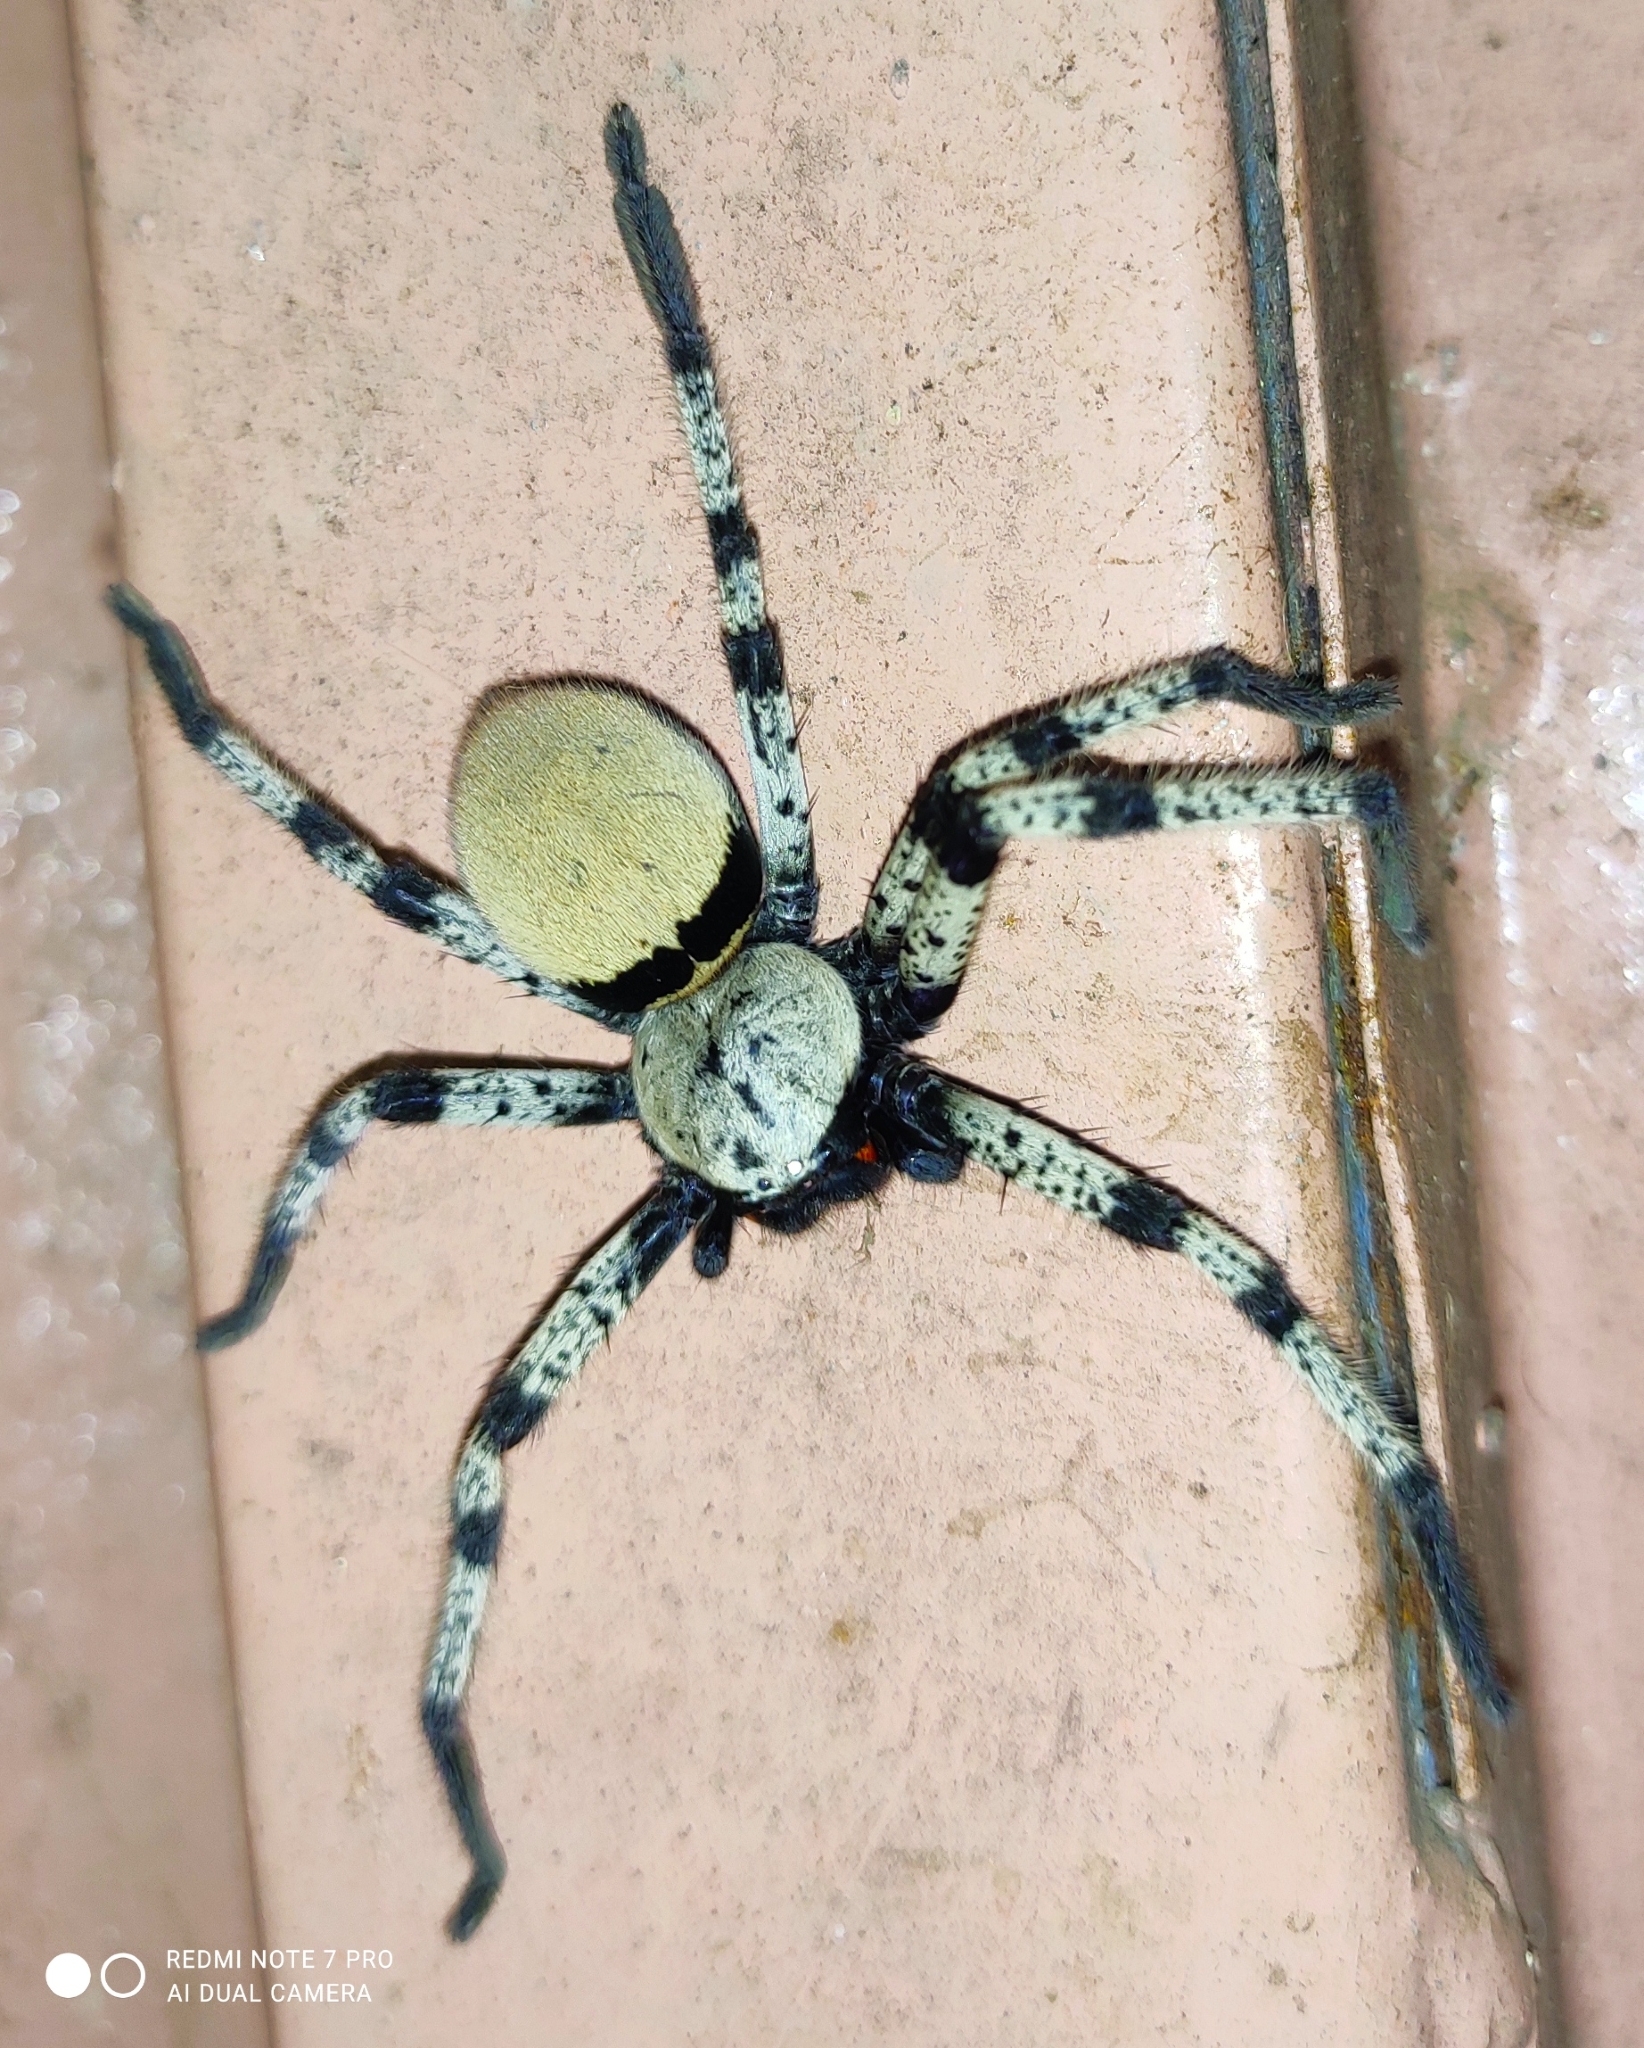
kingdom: Animalia
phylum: Arthropoda
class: Arachnida
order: Araneae
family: Sparassidae
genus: Olios
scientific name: Olios lamarcki
